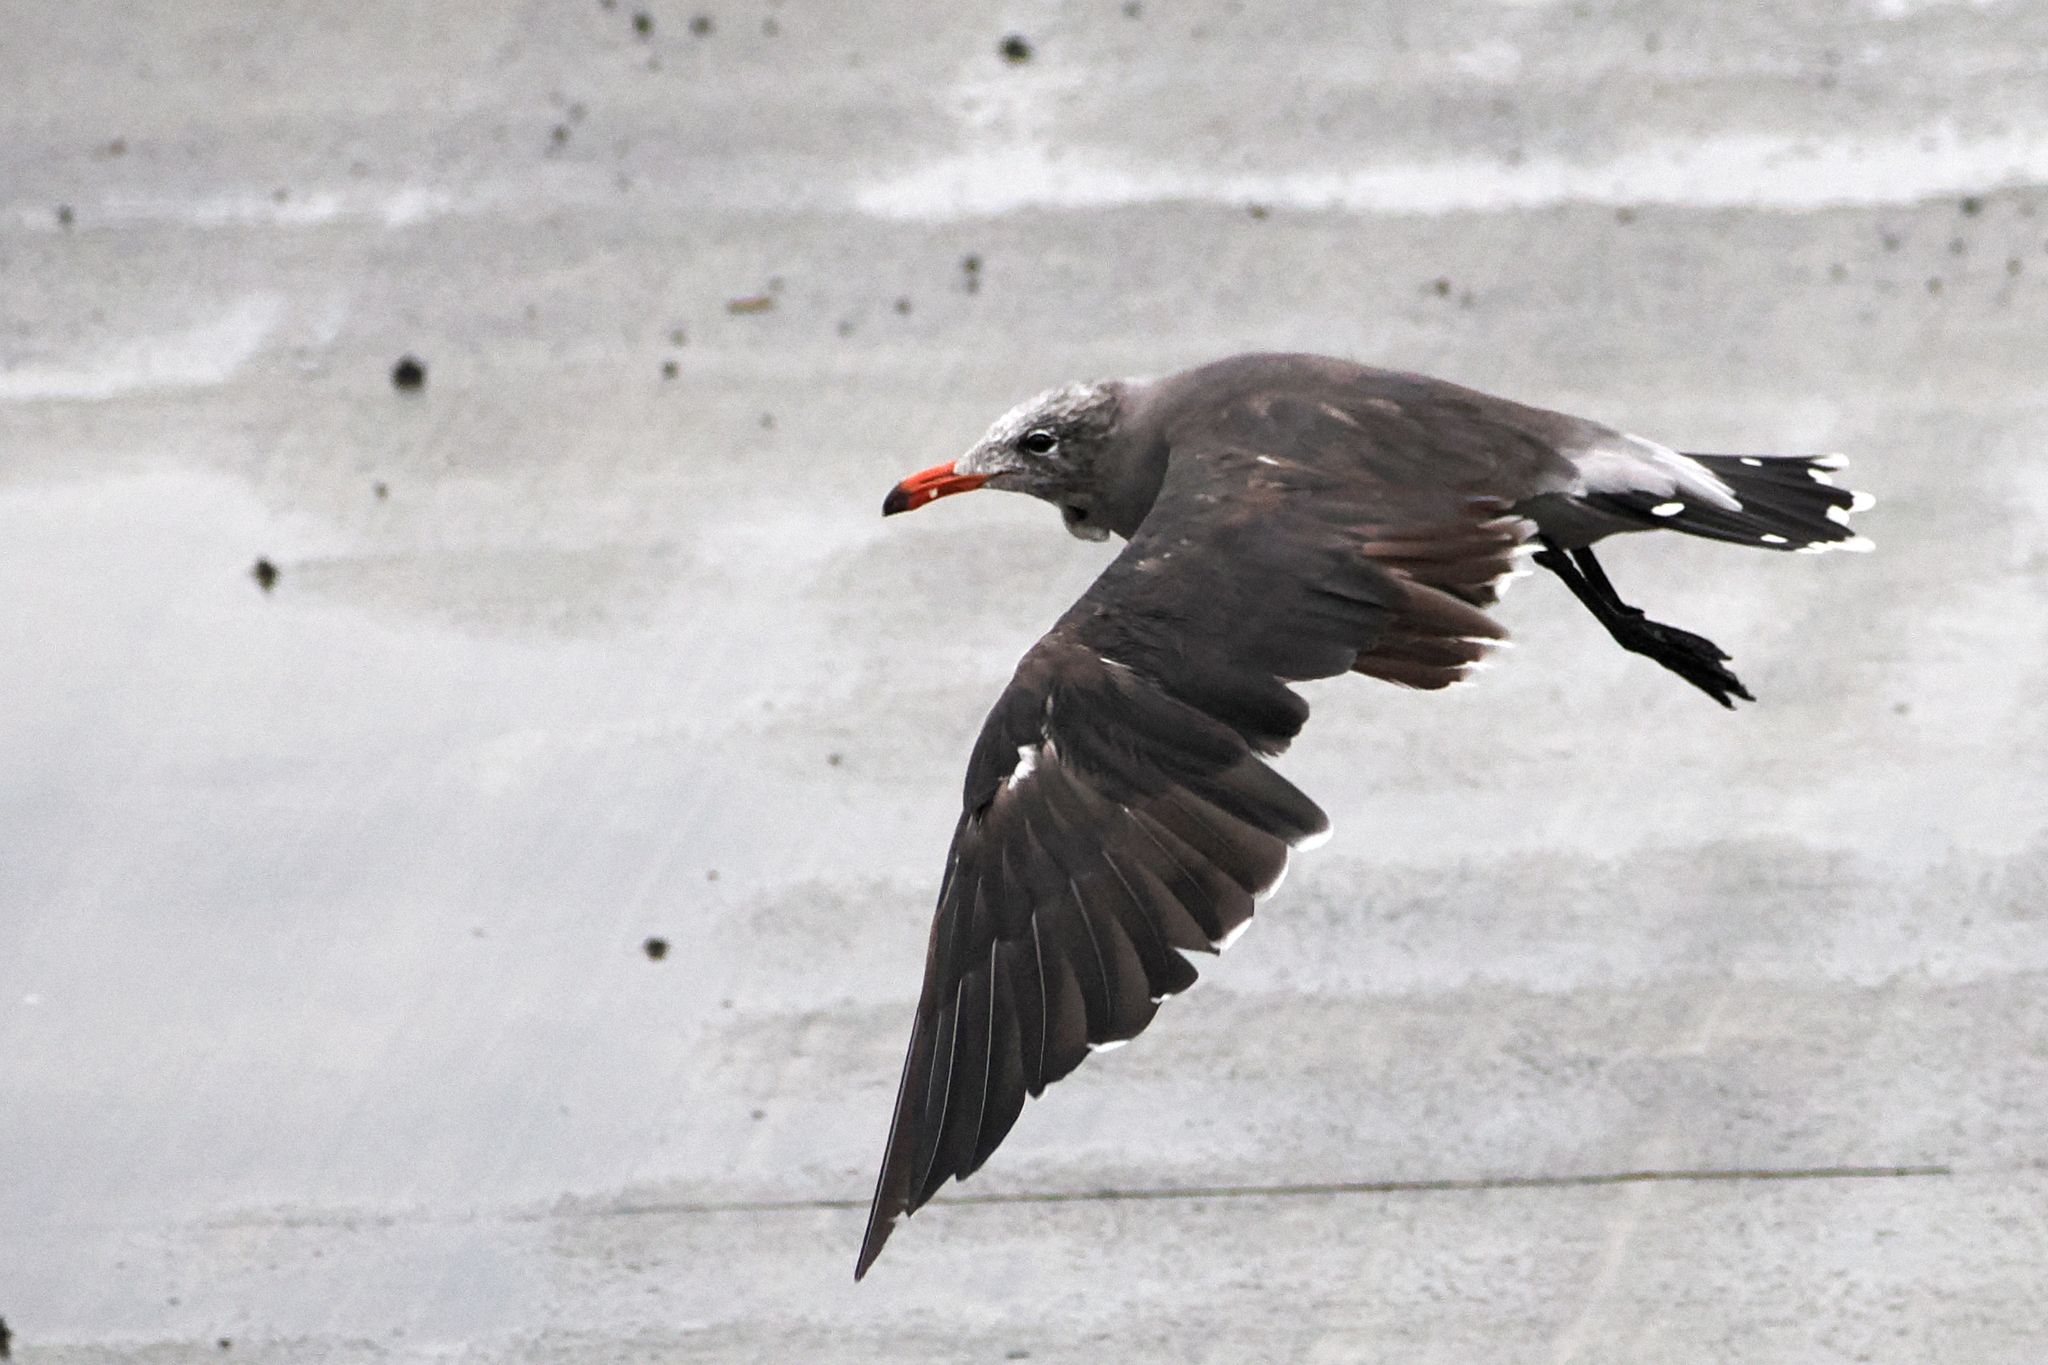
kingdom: Animalia
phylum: Chordata
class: Aves
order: Charadriiformes
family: Laridae
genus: Larus
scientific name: Larus heermanni
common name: Heermann's gull
